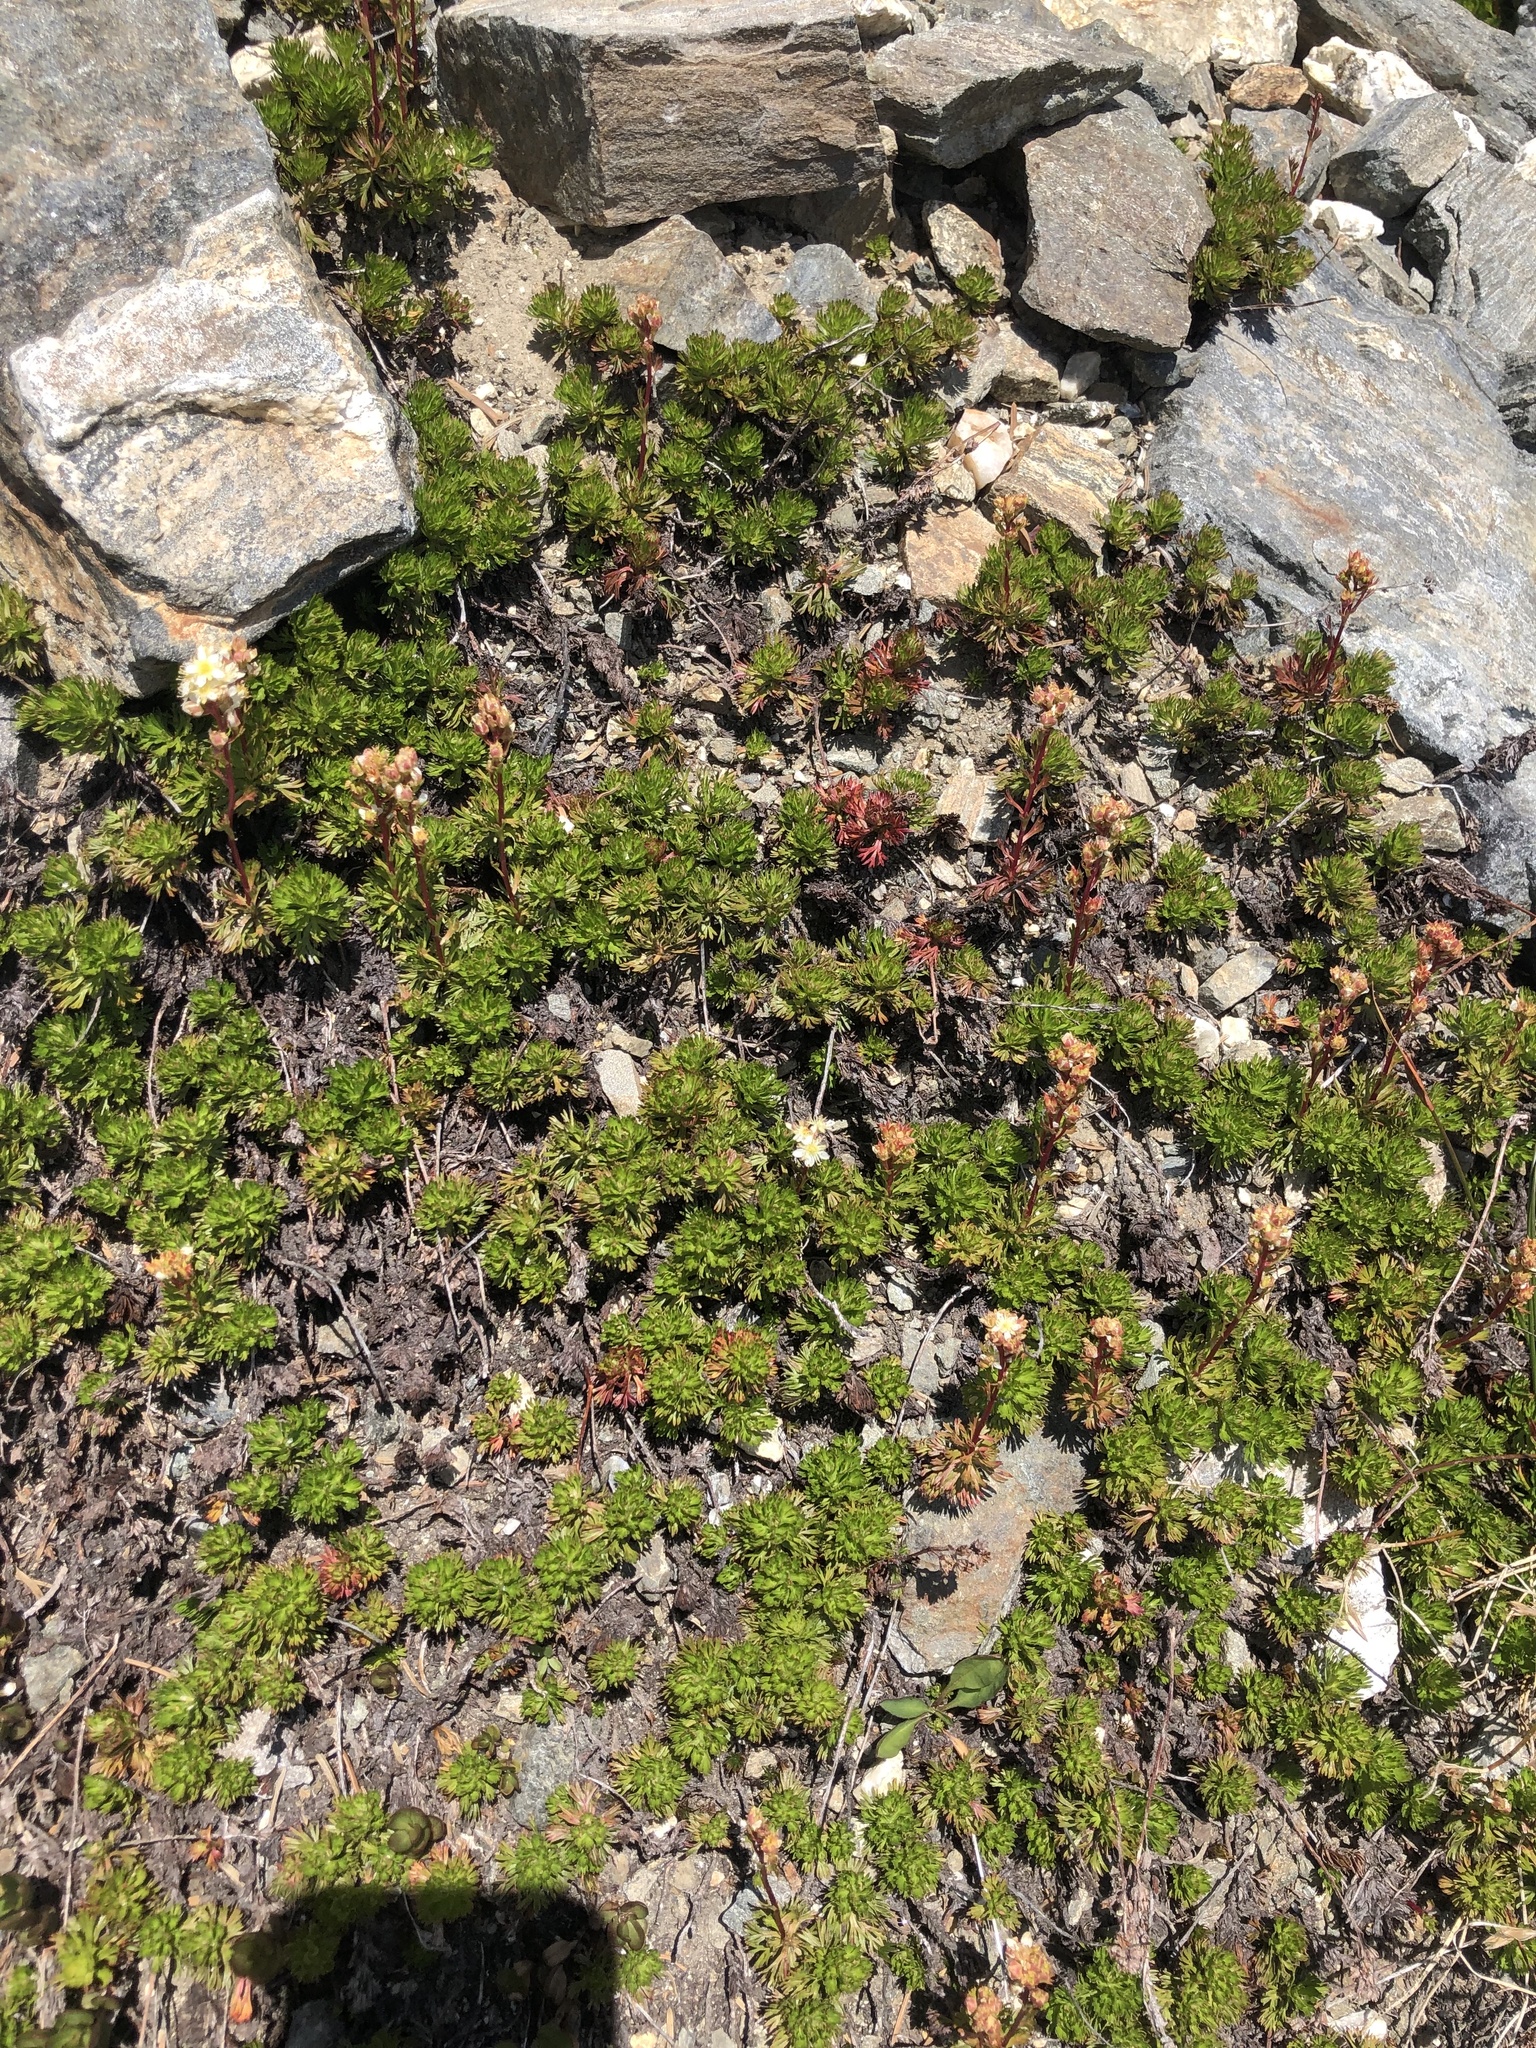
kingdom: Plantae
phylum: Tracheophyta
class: Magnoliopsida
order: Rosales
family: Rosaceae
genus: Luetkea
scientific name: Luetkea pectinata
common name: Partridgefoot
